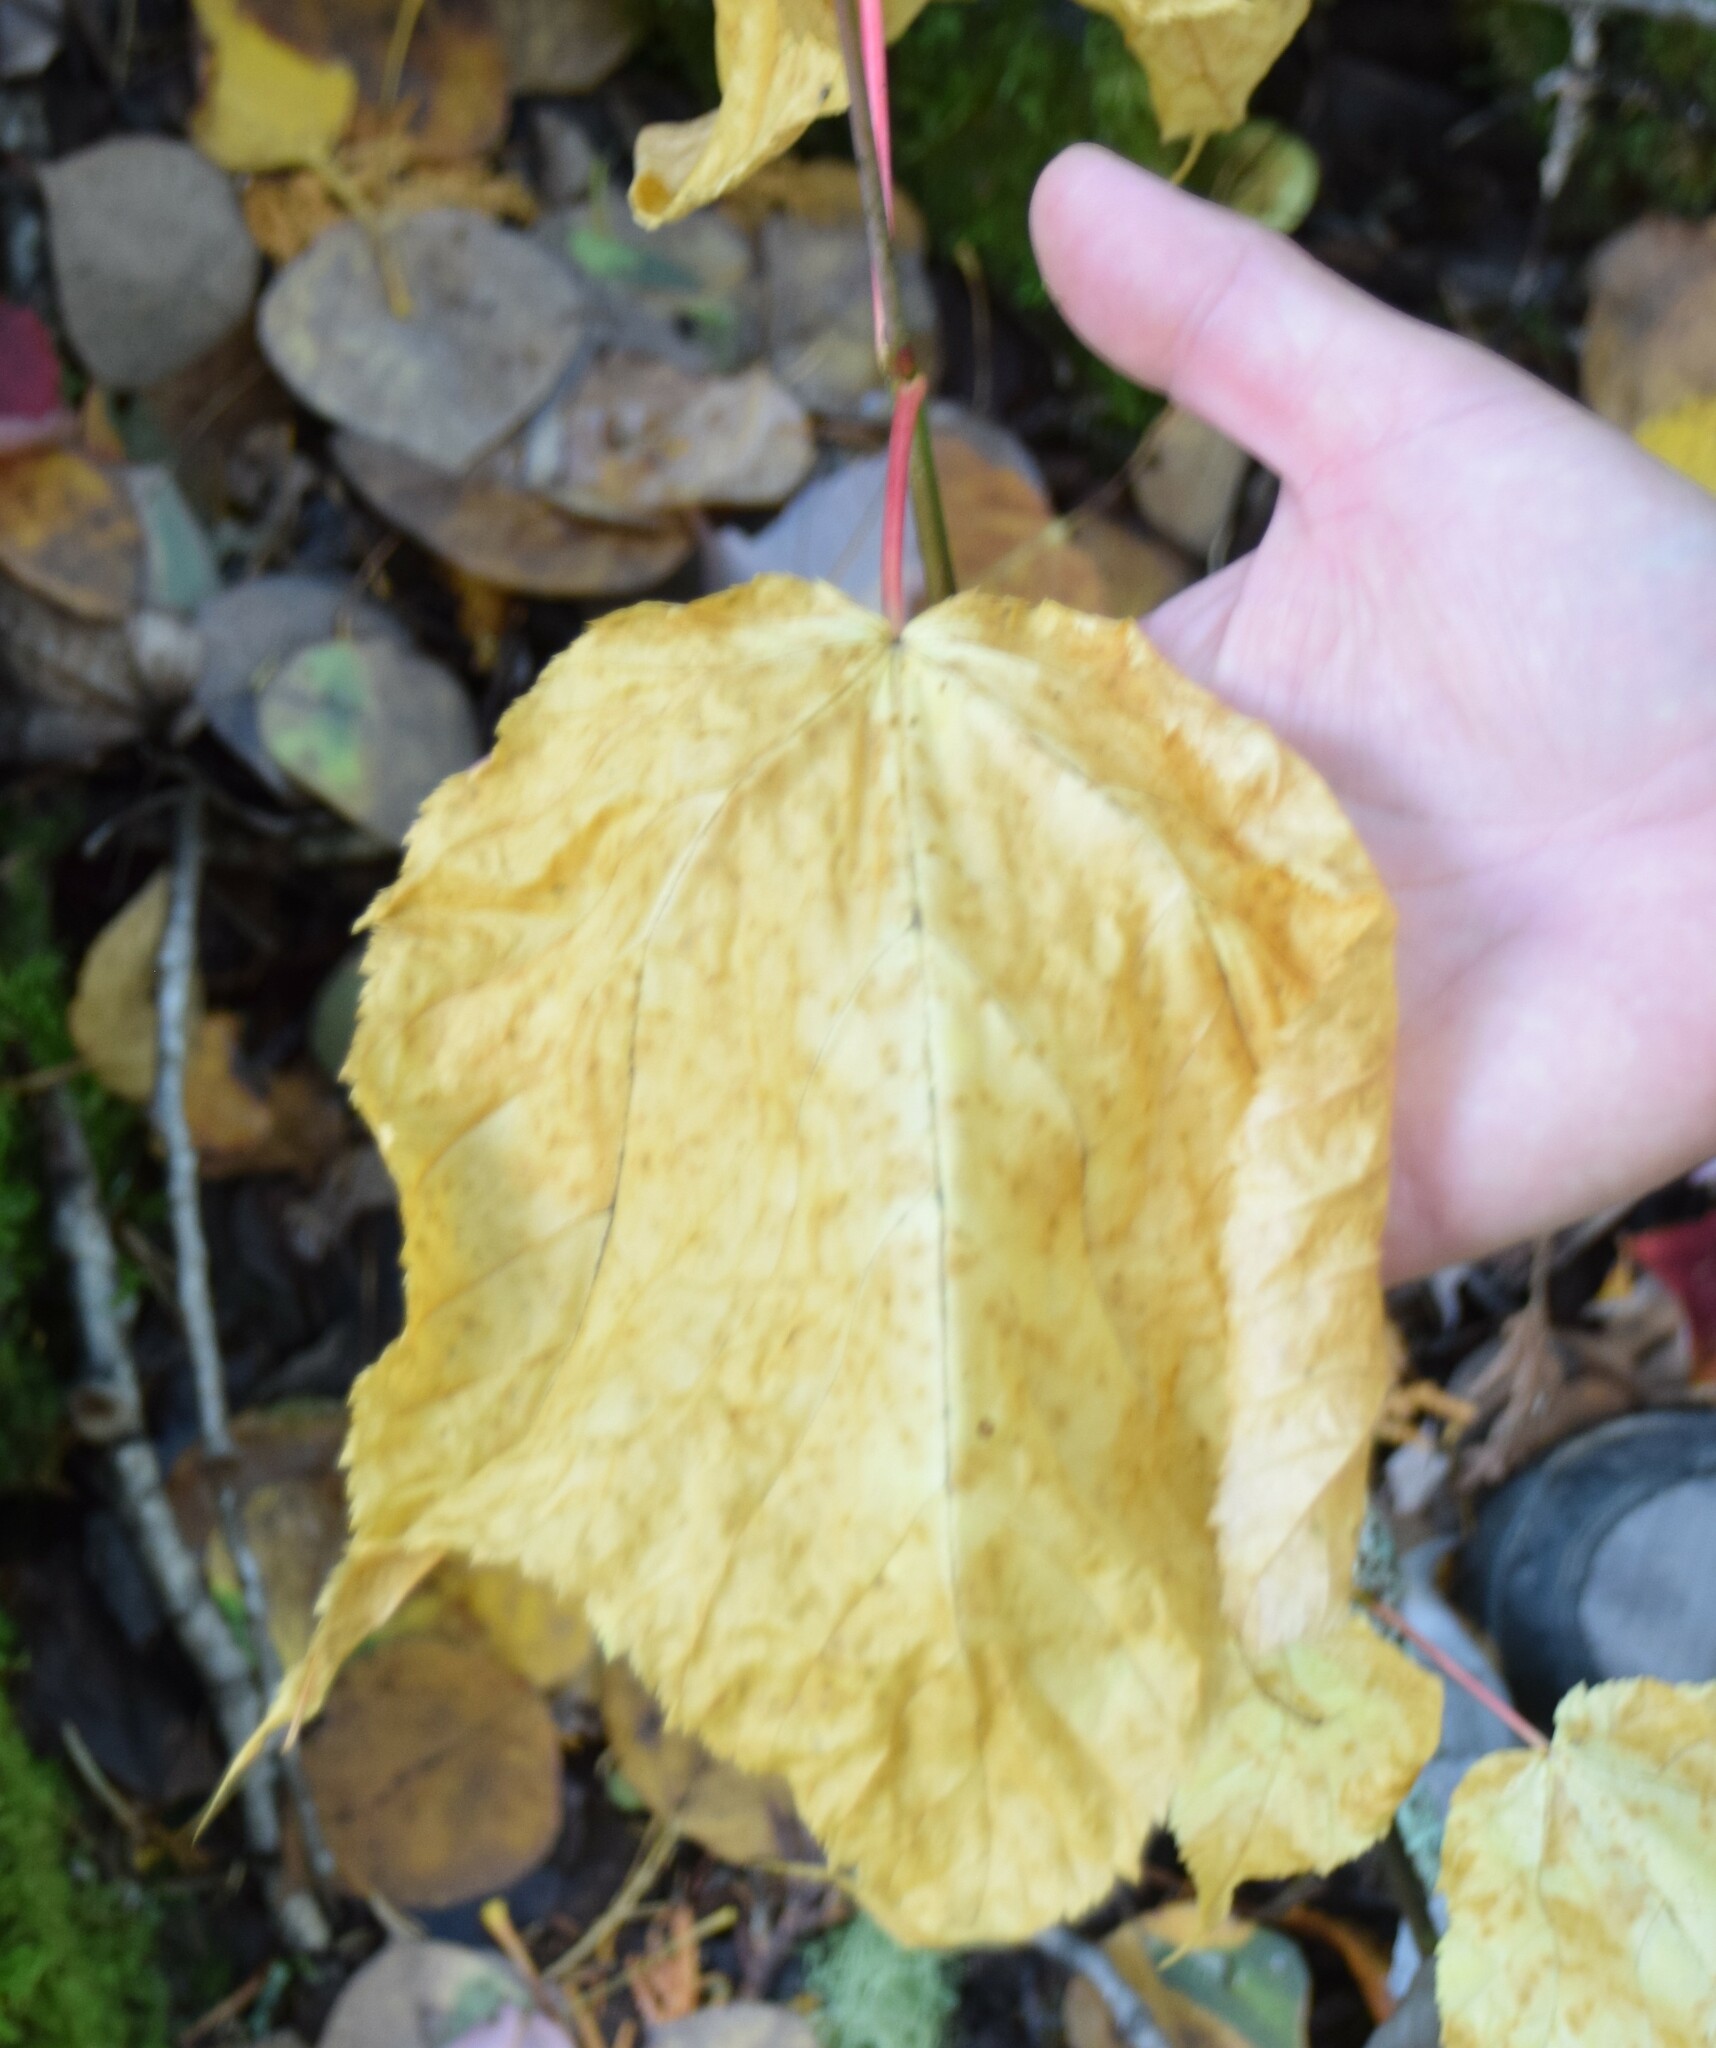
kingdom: Plantae
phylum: Tracheophyta
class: Magnoliopsida
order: Sapindales
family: Sapindaceae
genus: Acer
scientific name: Acer pensylvanicum
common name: Moosewood
